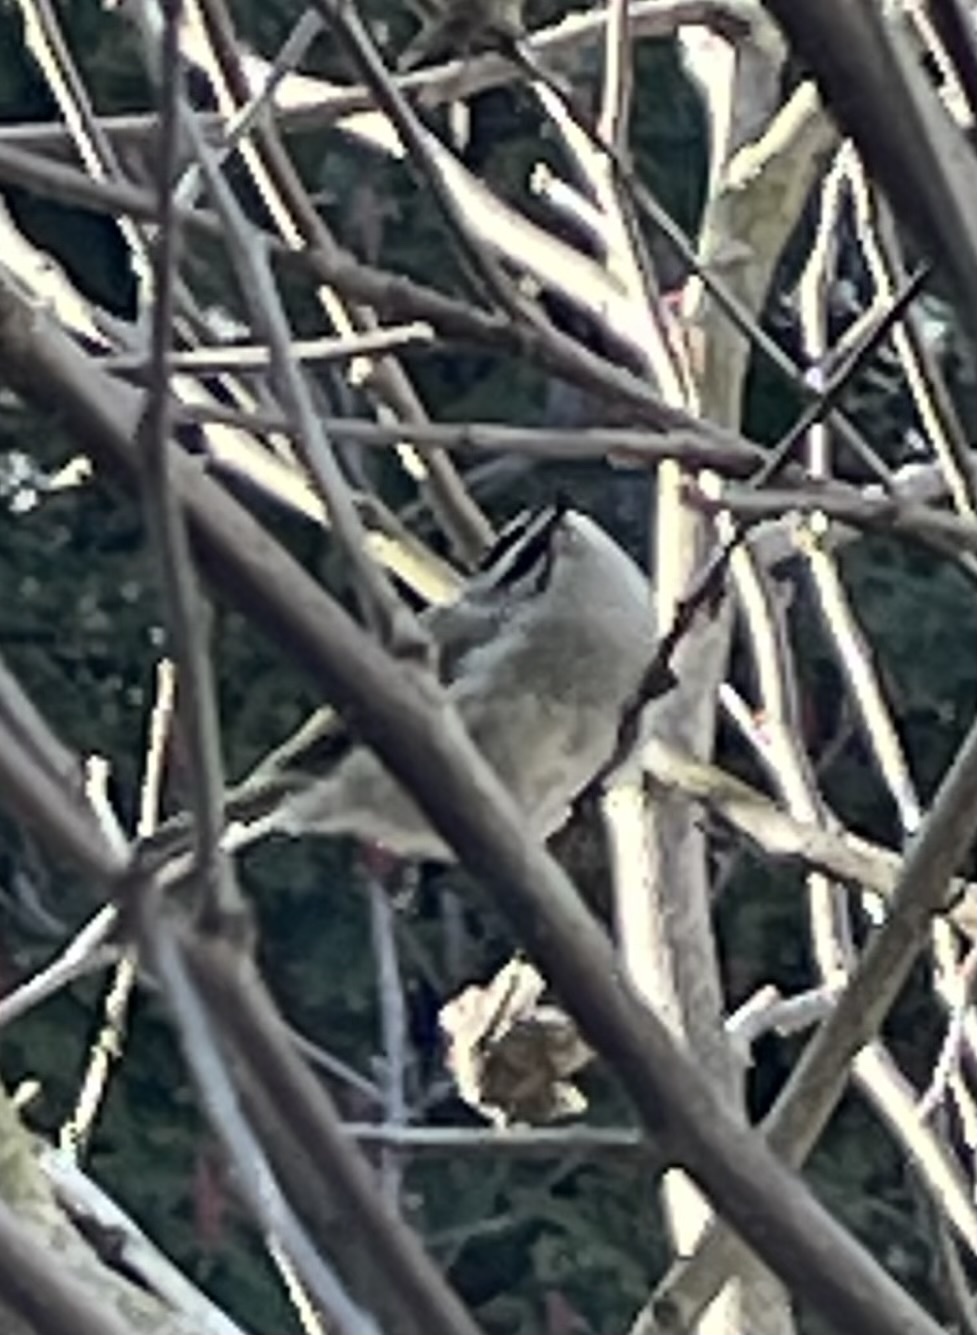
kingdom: Animalia
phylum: Chordata
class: Aves
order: Passeriformes
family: Regulidae
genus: Regulus
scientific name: Regulus satrapa
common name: Golden-crowned kinglet
